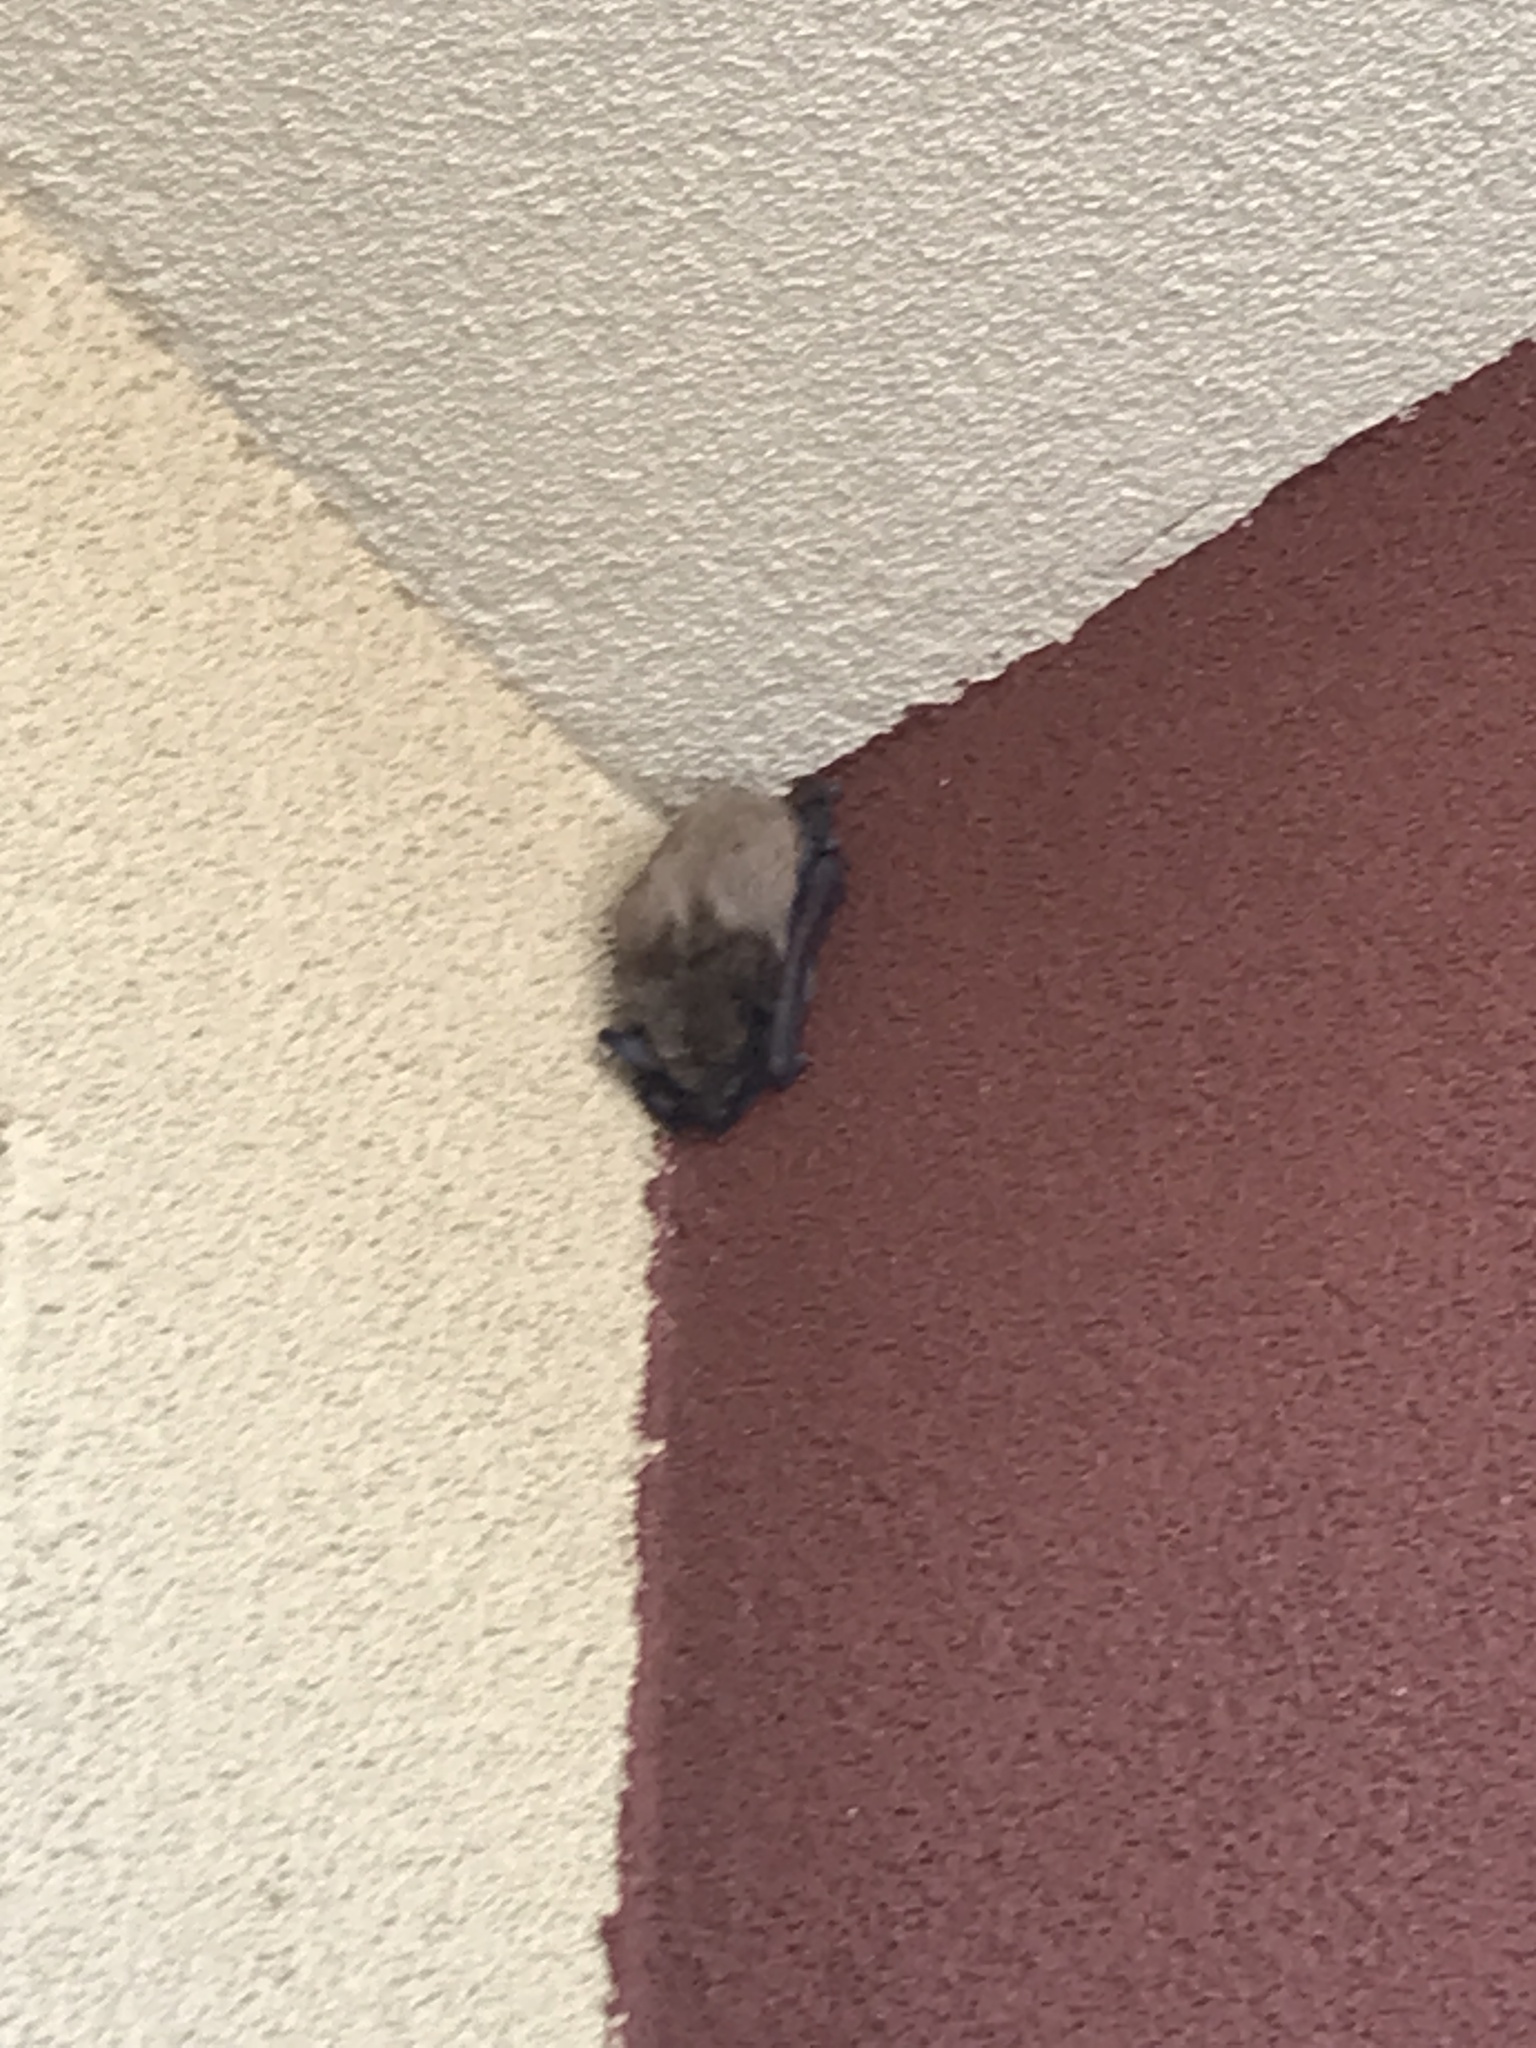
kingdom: Animalia
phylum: Chordata
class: Mammalia
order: Chiroptera
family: Vespertilionidae
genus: Eptesicus
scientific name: Eptesicus fuscus
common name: Big brown bat
